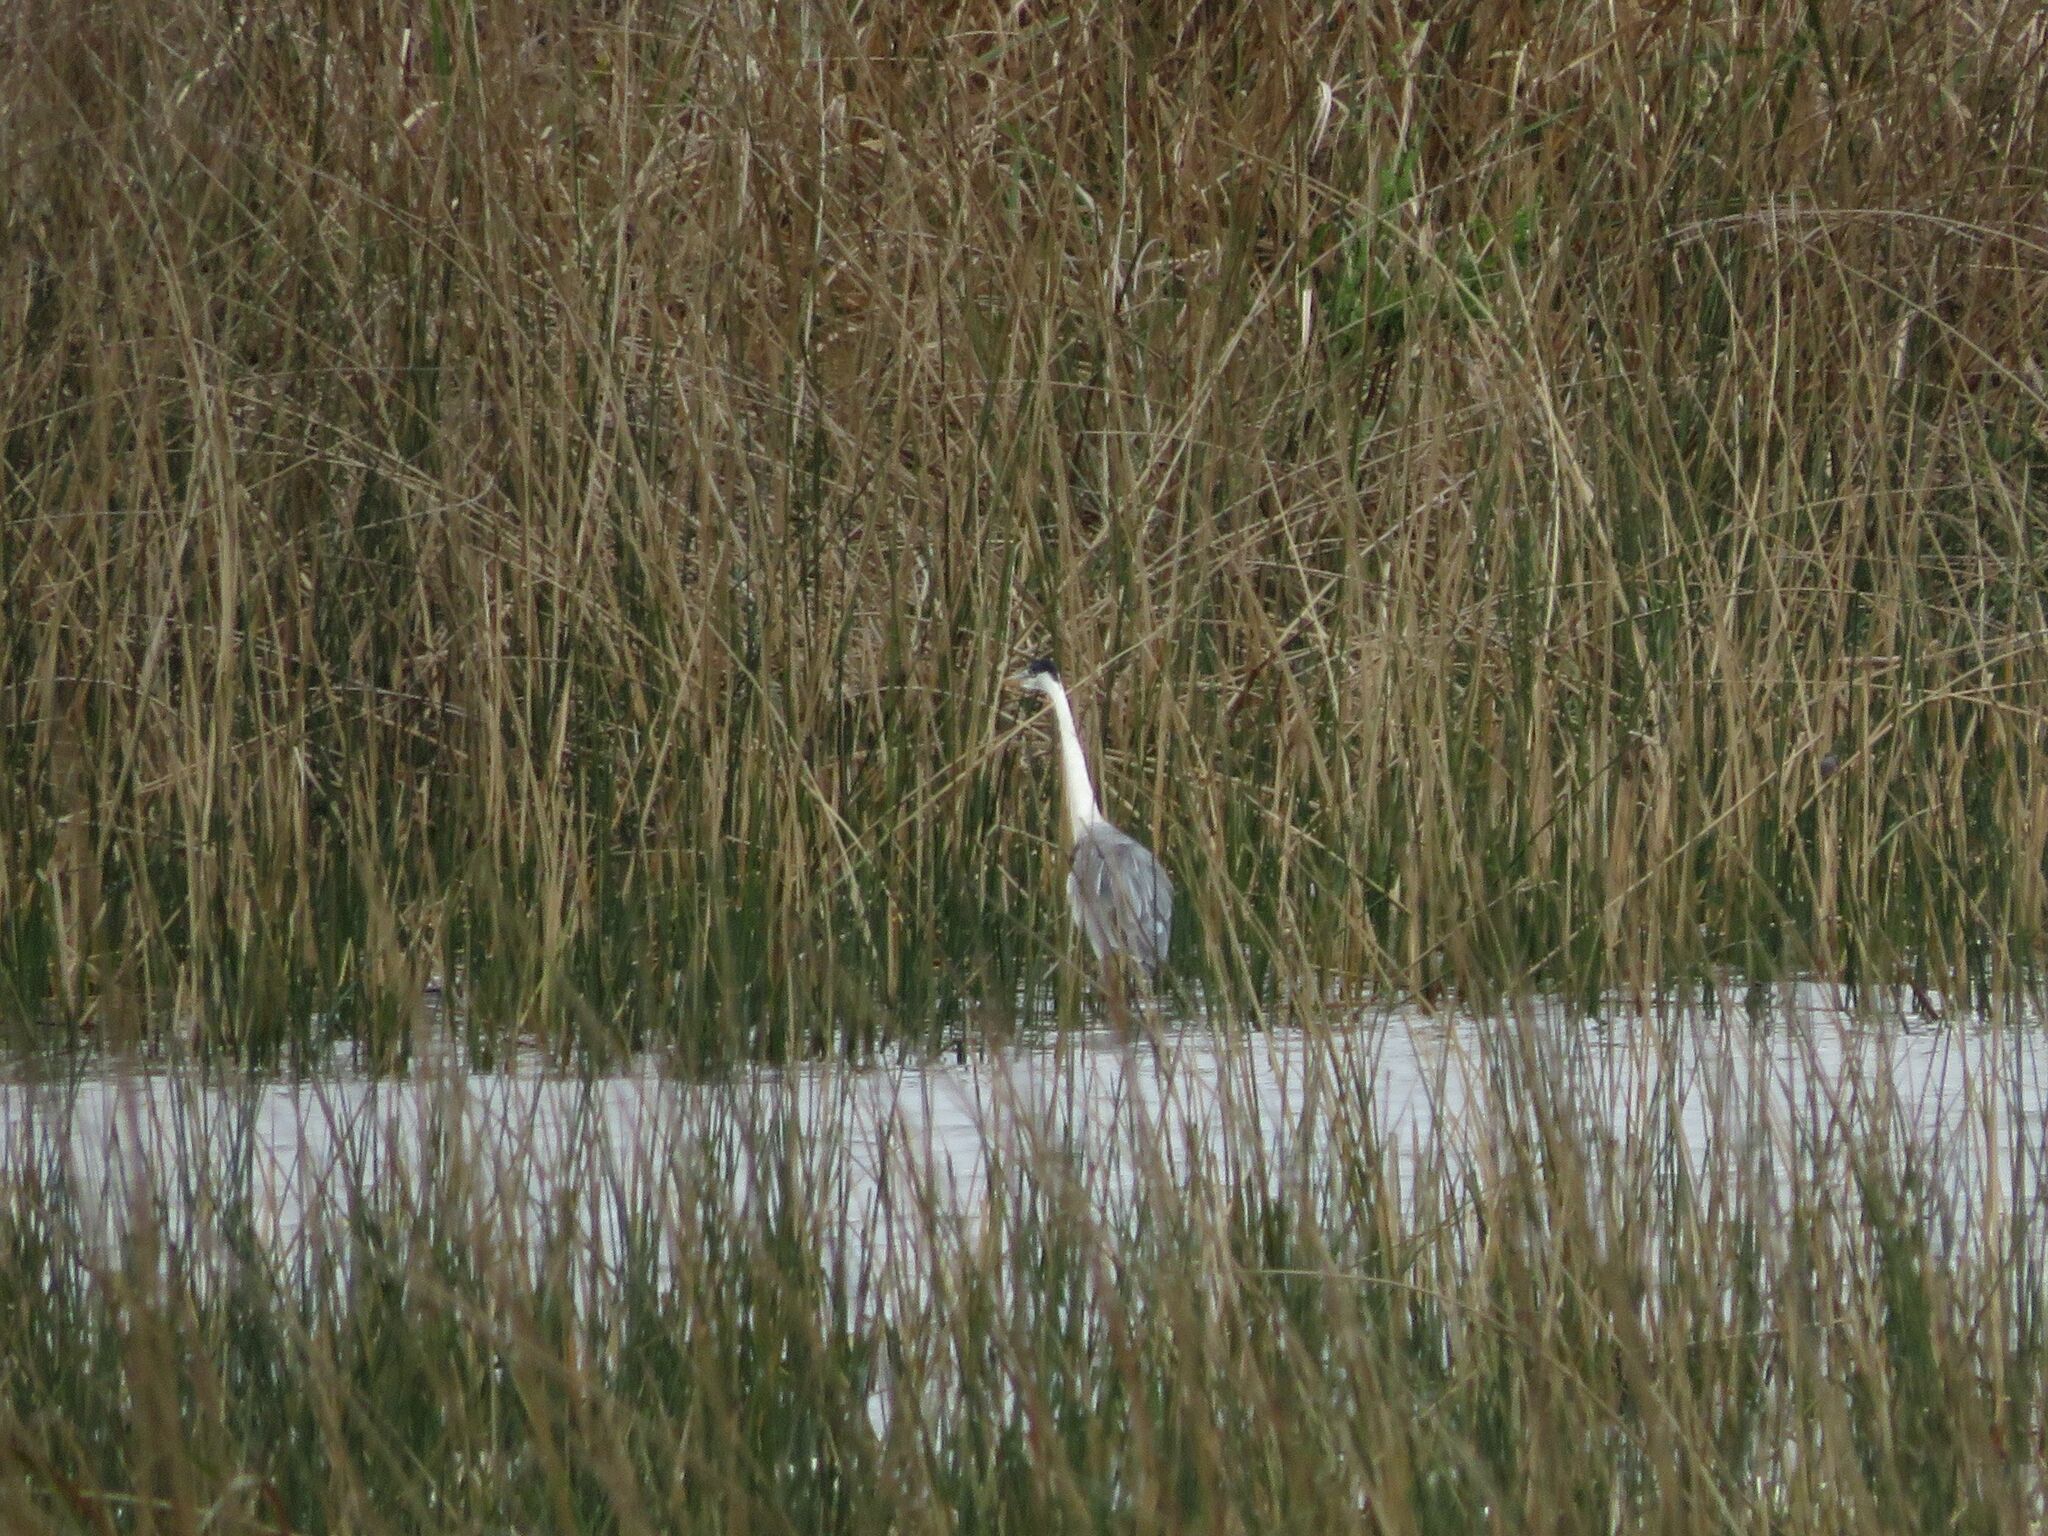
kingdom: Animalia
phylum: Chordata
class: Aves
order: Pelecaniformes
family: Ardeidae
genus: Ardea
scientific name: Ardea cocoi
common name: Cocoi heron
